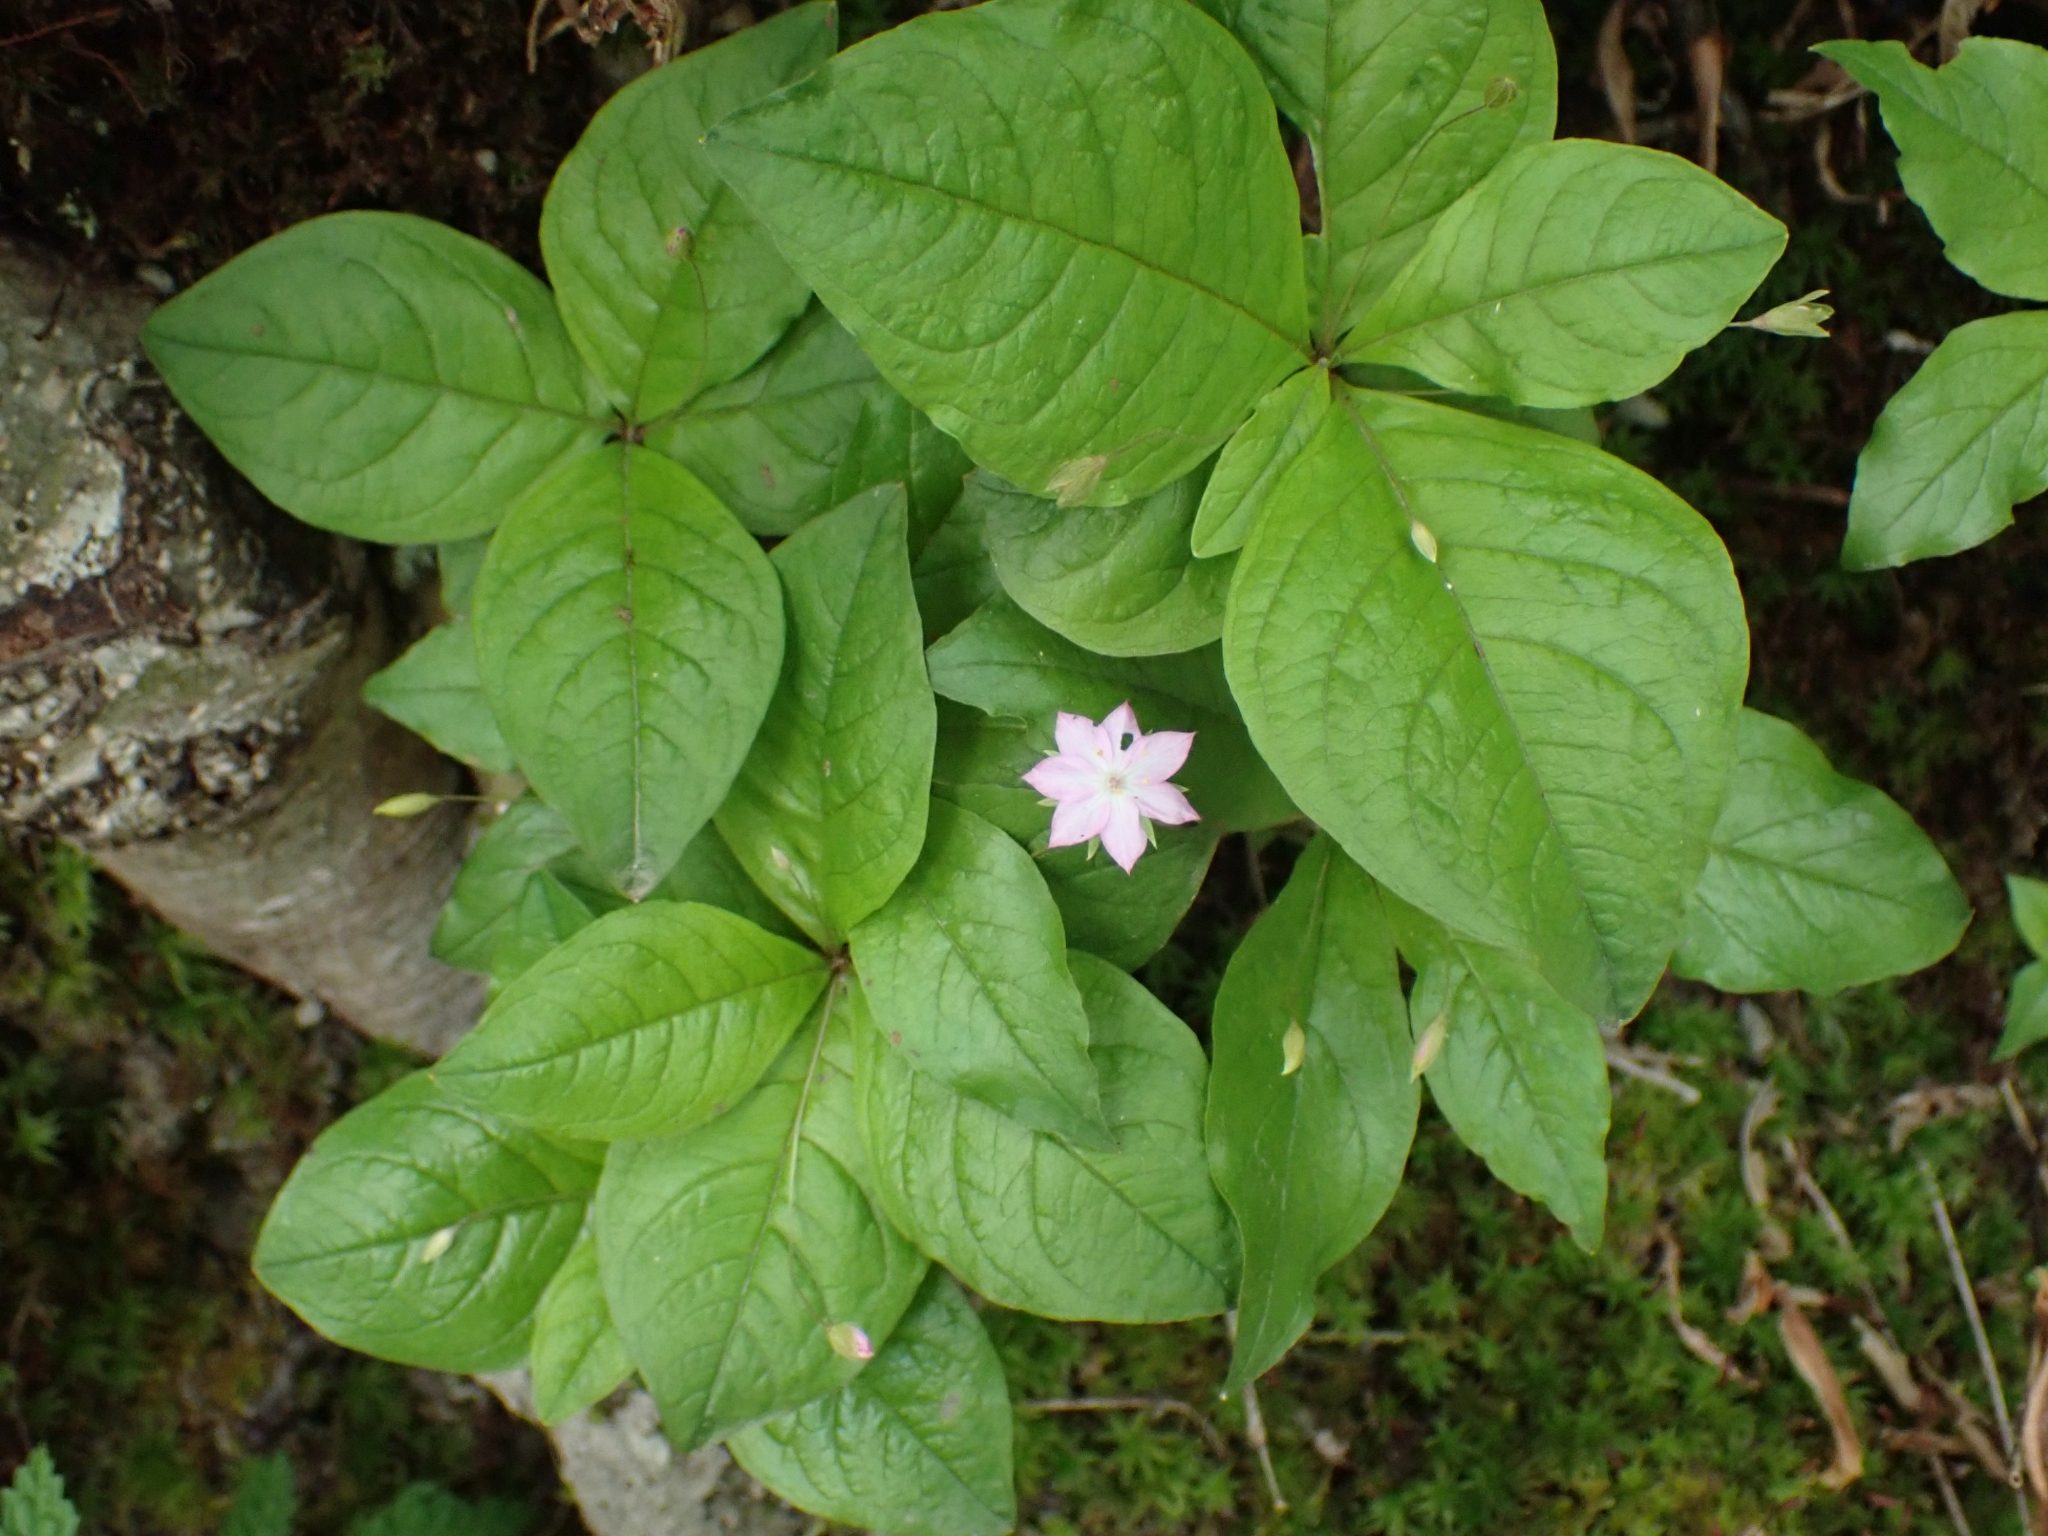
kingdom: Plantae
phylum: Tracheophyta
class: Magnoliopsida
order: Ericales
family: Primulaceae
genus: Lysimachia
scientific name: Lysimachia latifolia
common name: Pacific starflower
